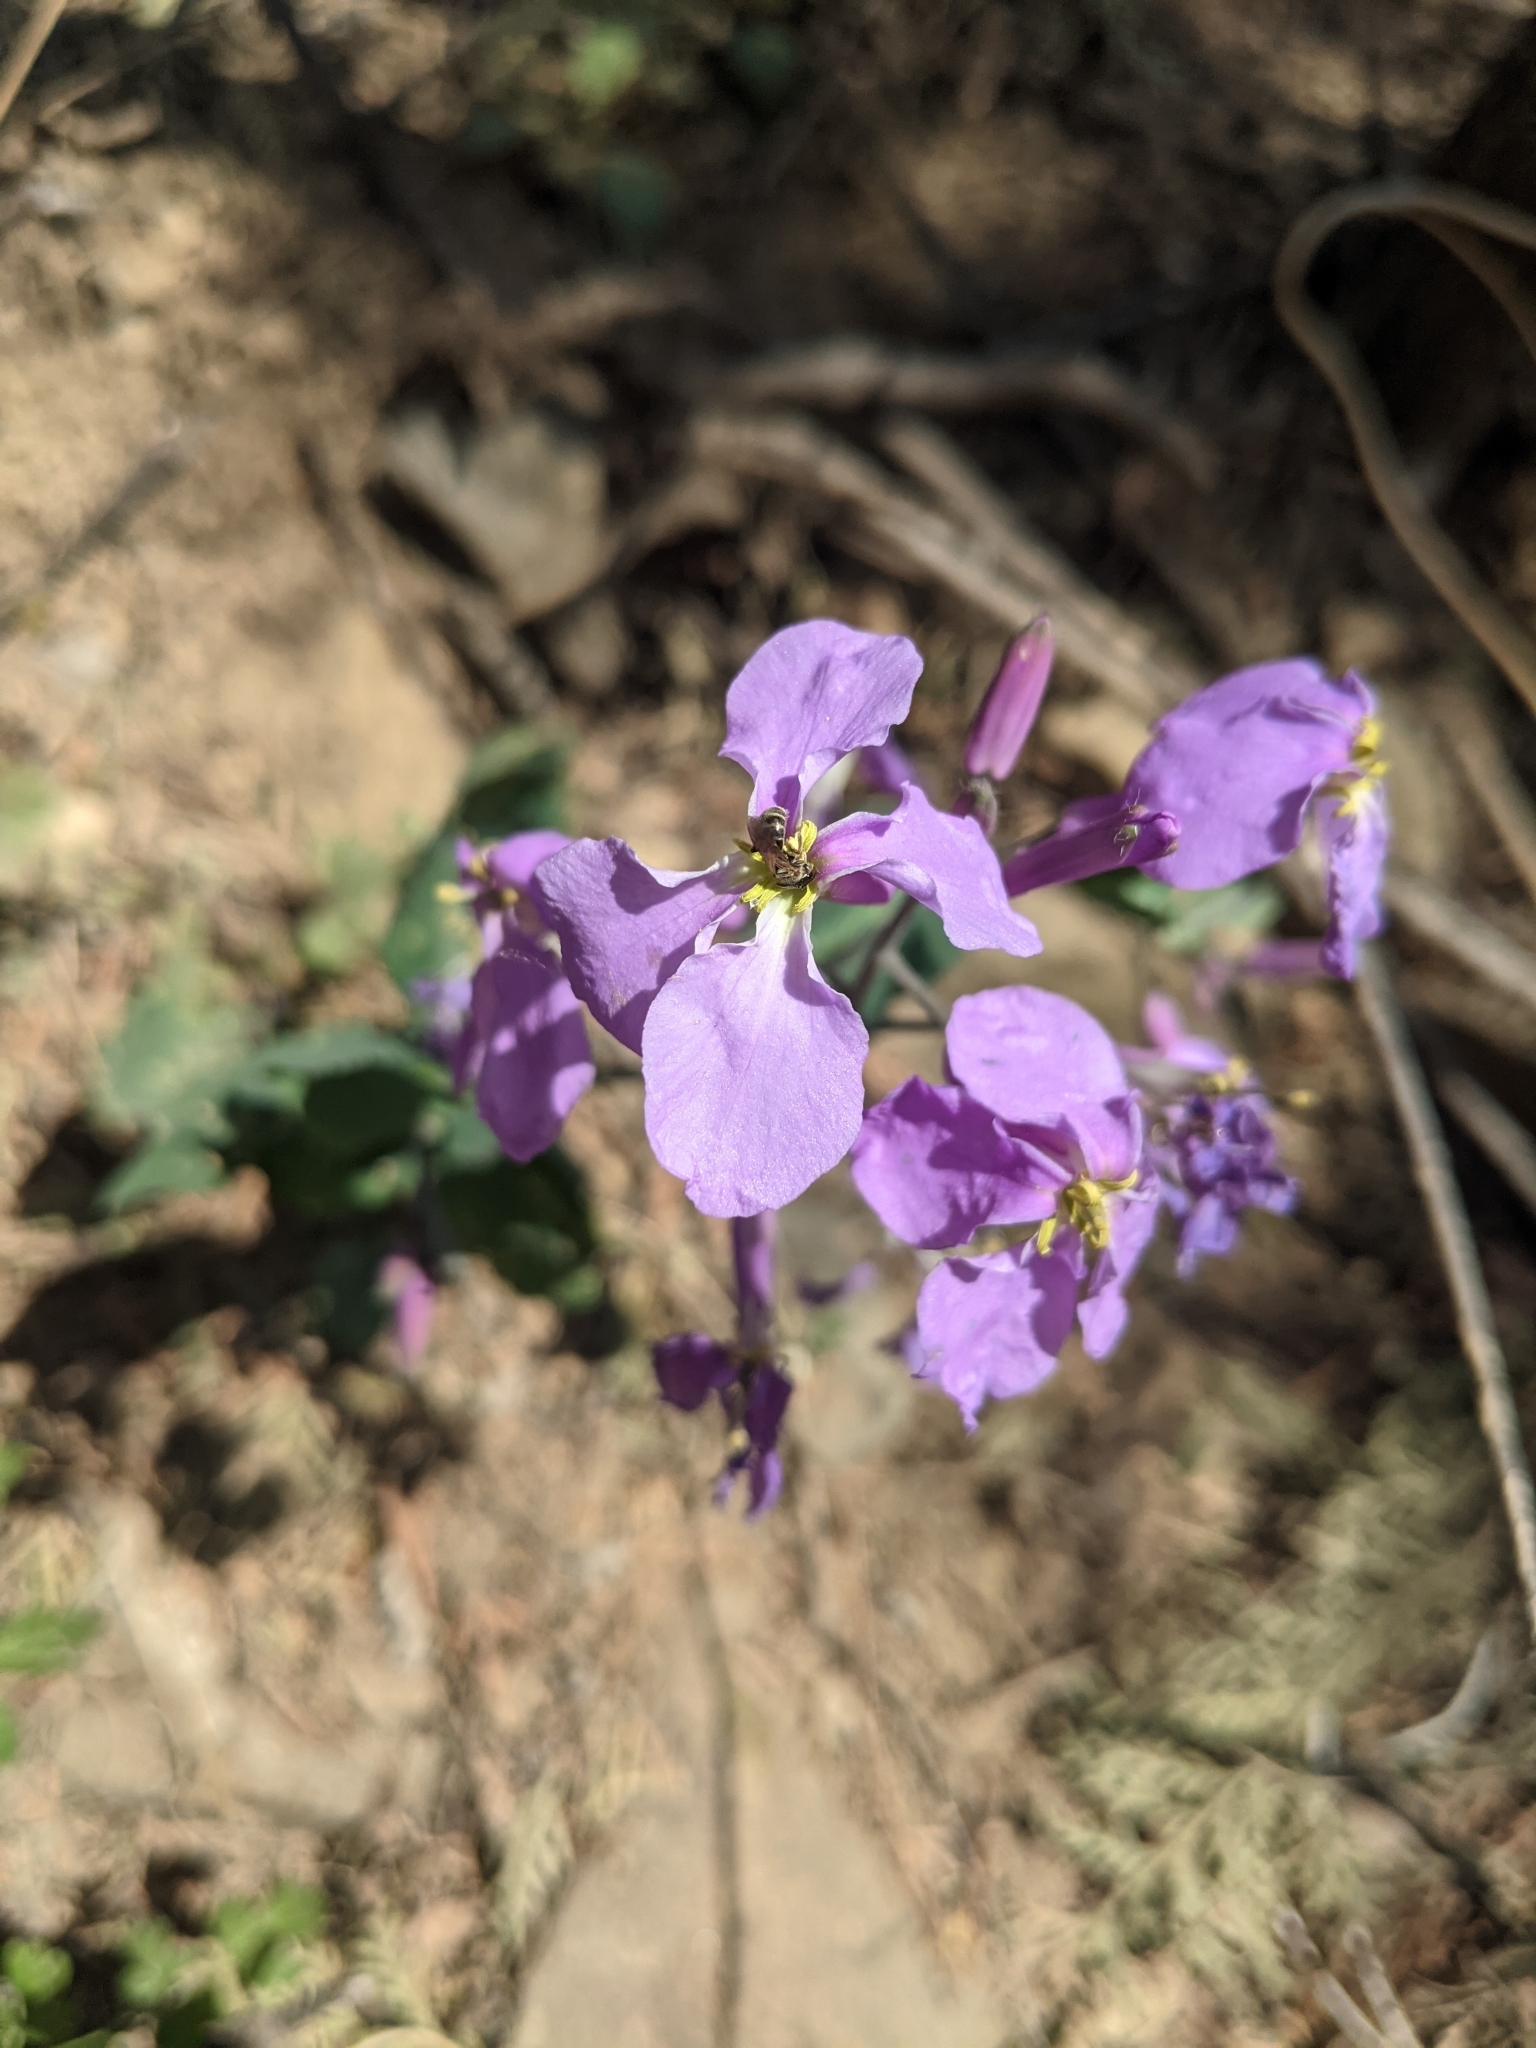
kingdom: Plantae
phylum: Tracheophyta
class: Magnoliopsida
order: Brassicales
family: Brassicaceae
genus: Orychophragmus
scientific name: Orychophragmus violaceus
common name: Mustard
